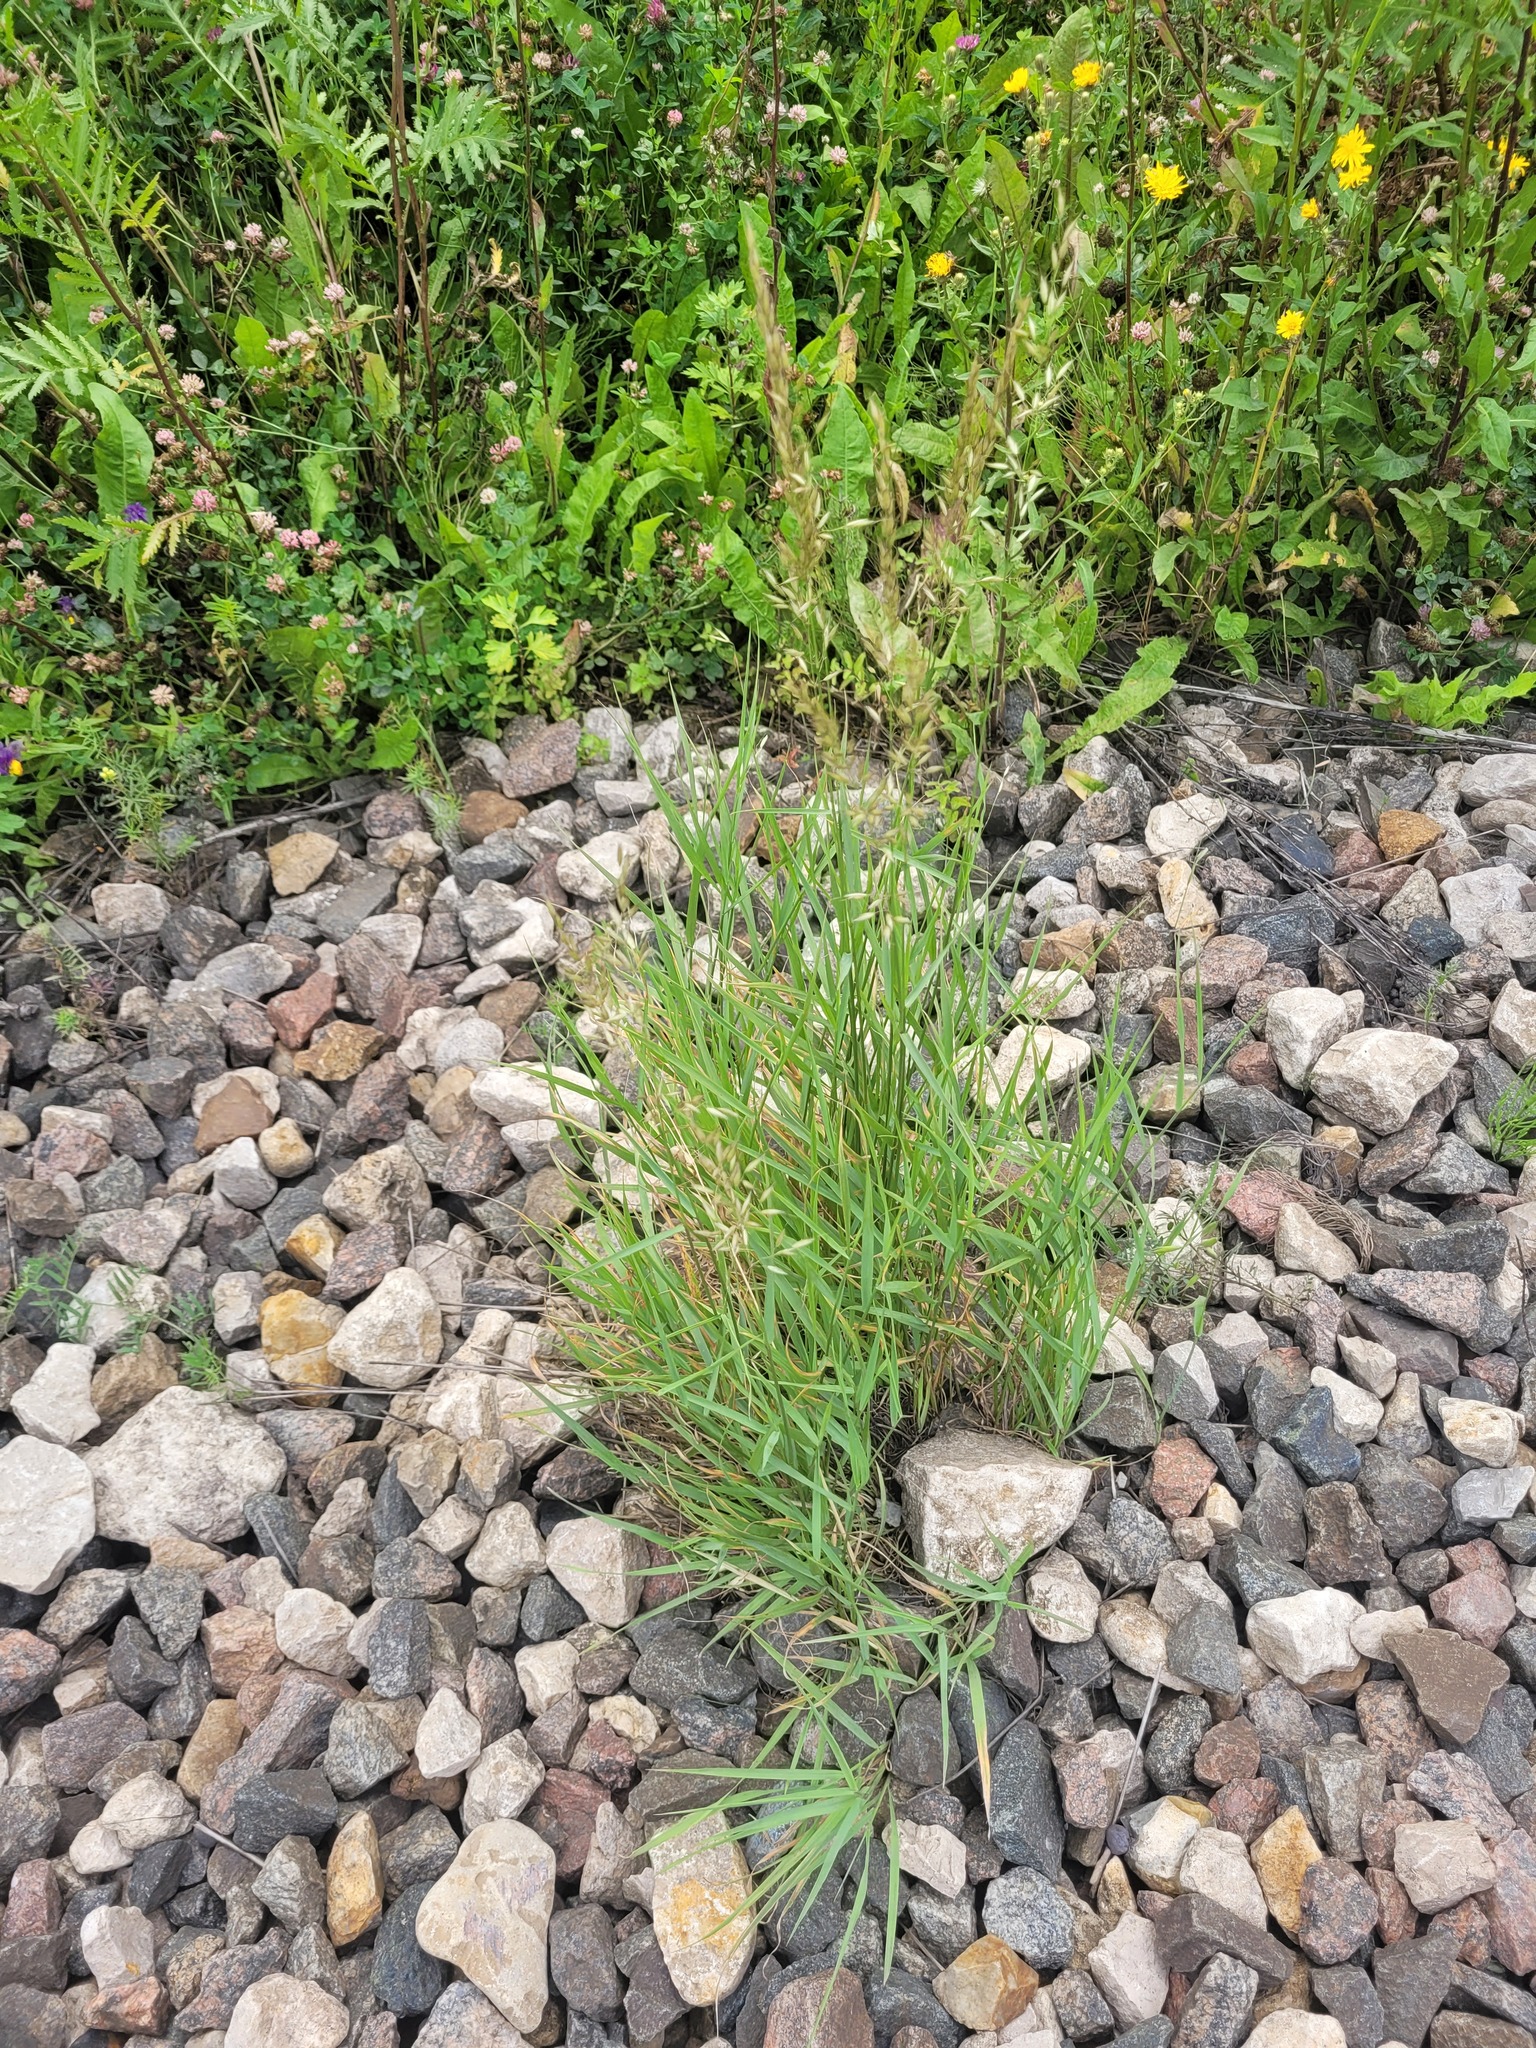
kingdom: Plantae
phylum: Tracheophyta
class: Liliopsida
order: Poales
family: Poaceae
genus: Arrhenatherum
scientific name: Arrhenatherum elatius
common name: Tall oatgrass
